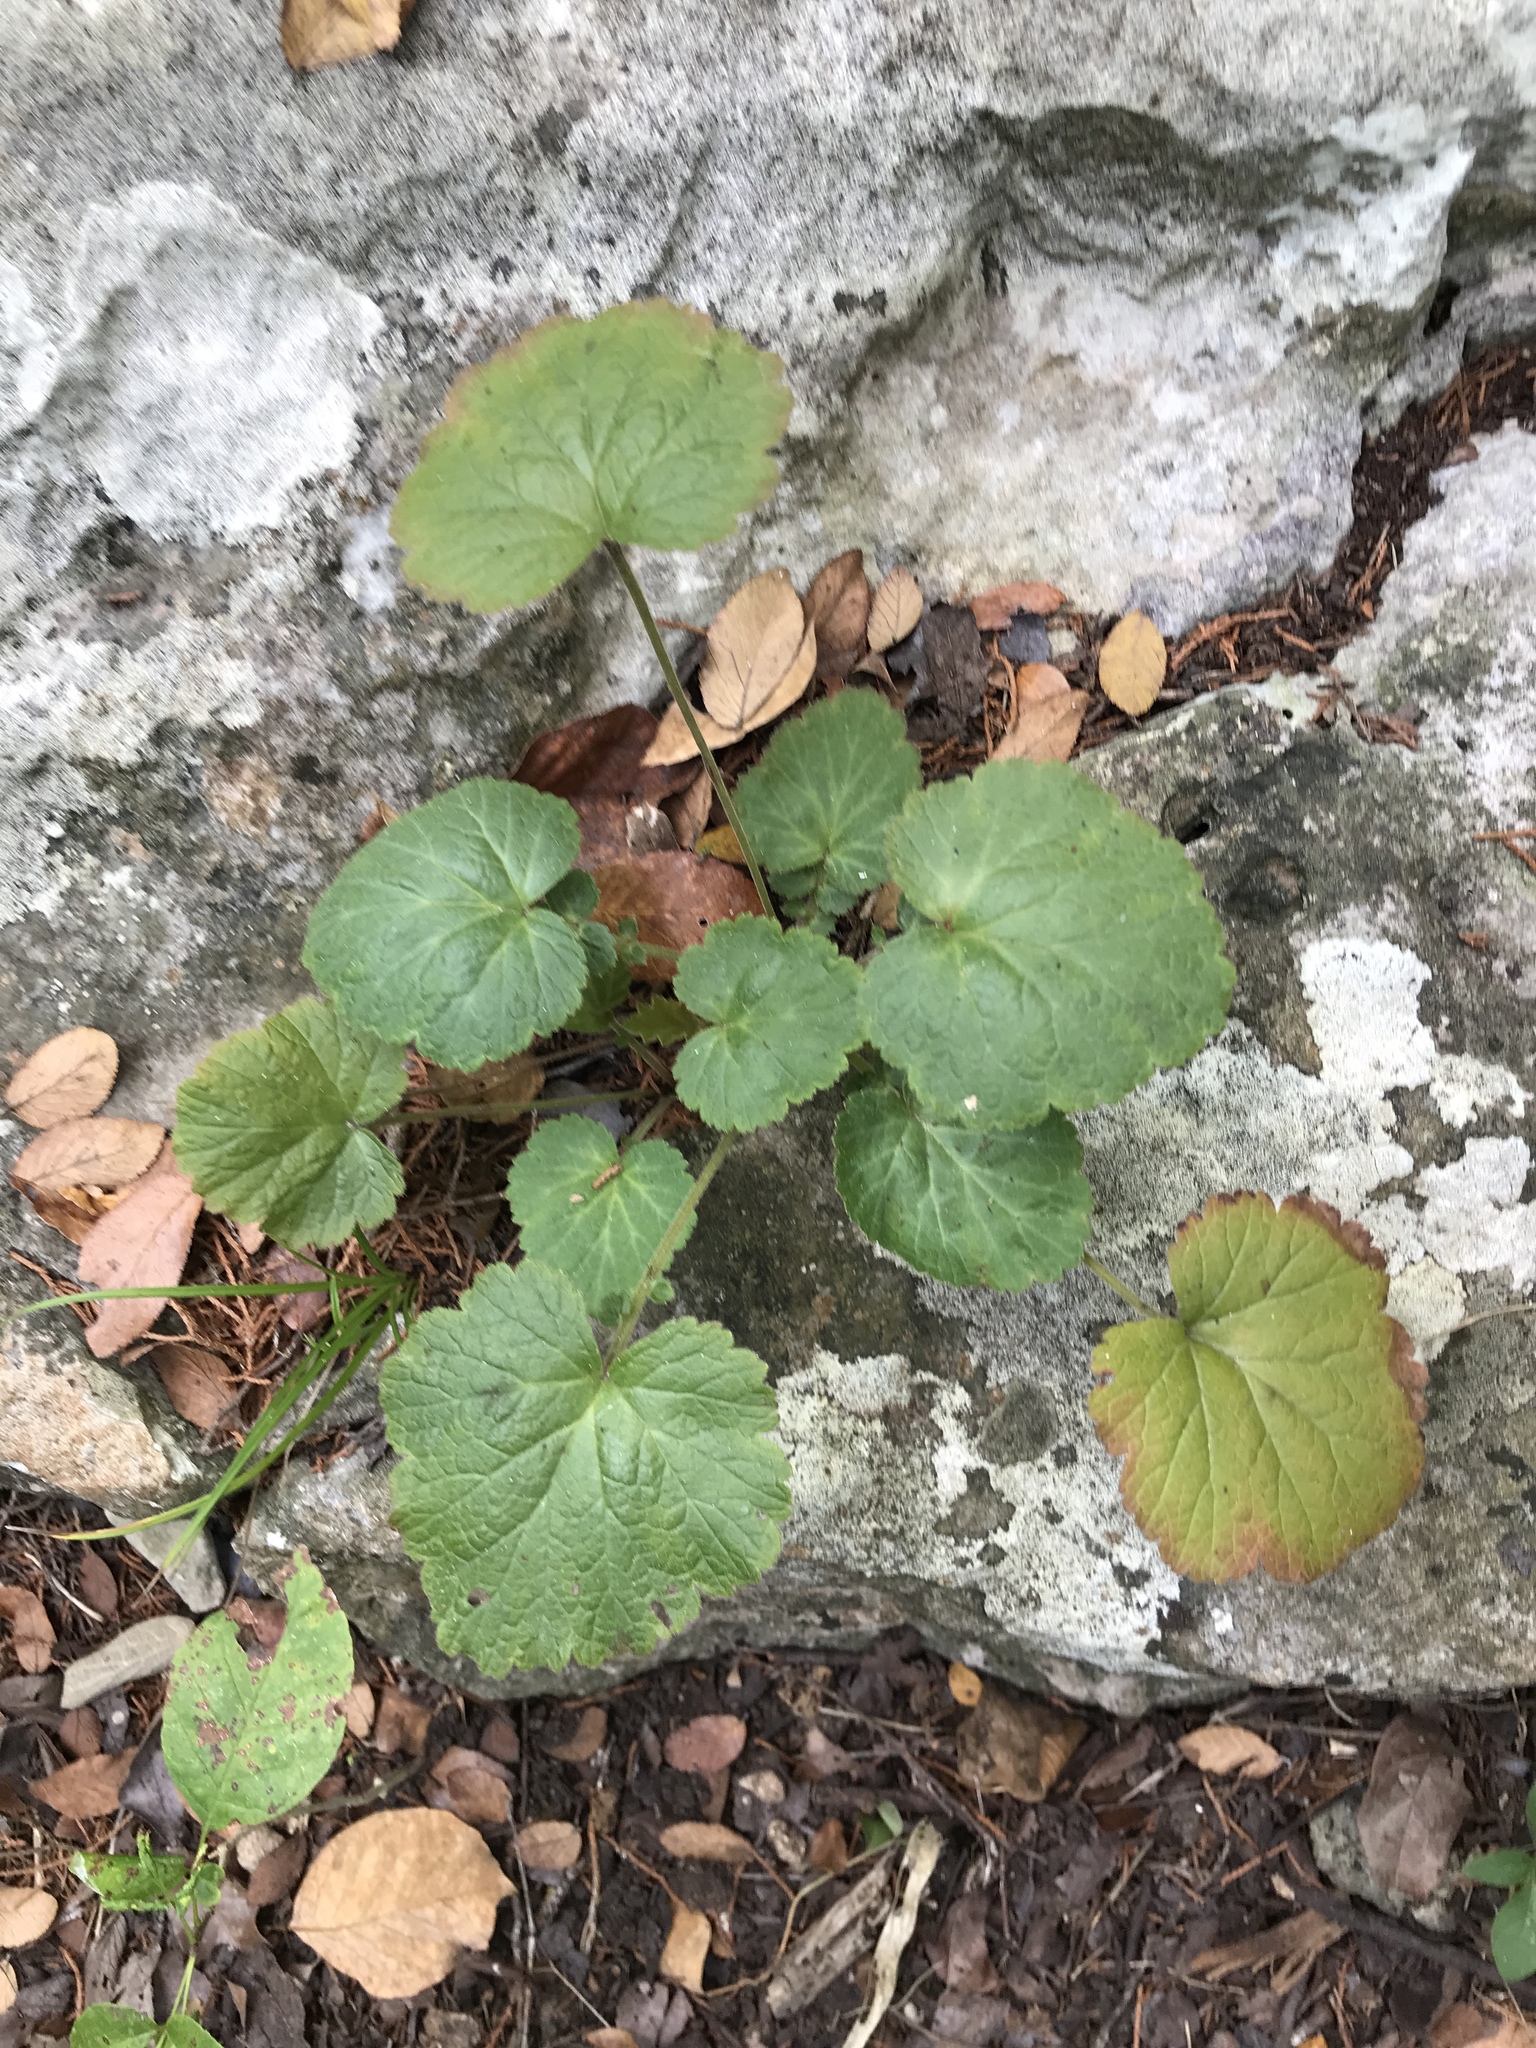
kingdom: Plantae
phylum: Tracheophyta
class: Magnoliopsida
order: Rosales
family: Rosaceae
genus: Geum
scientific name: Geum canadense
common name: White avens
